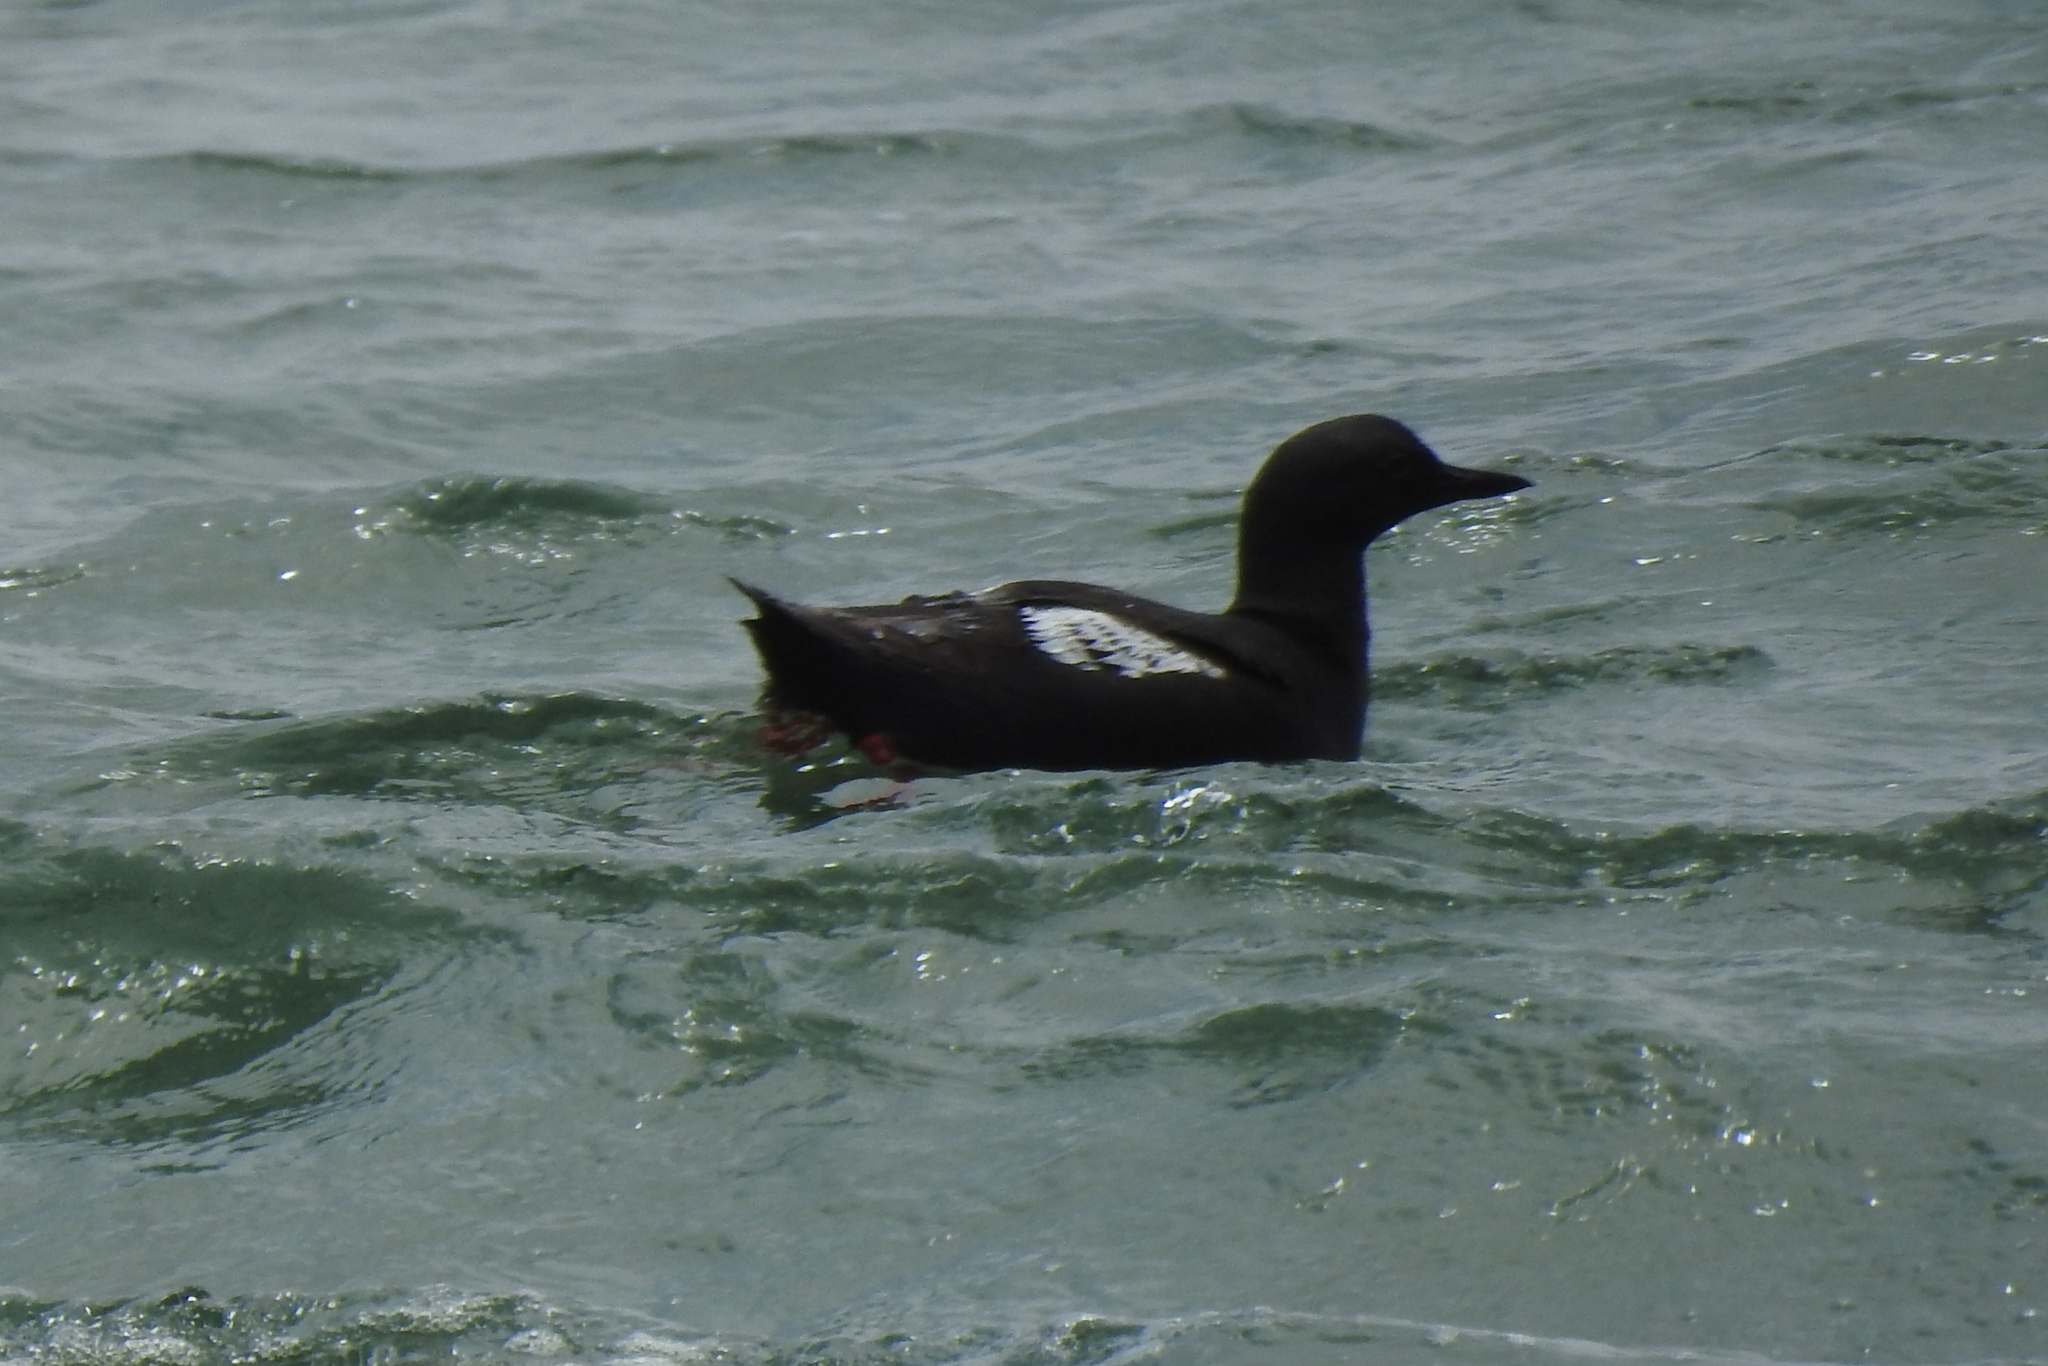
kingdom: Animalia
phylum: Chordata
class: Aves
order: Charadriiformes
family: Alcidae
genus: Cepphus
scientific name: Cepphus columba
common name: Pigeon guillemot
